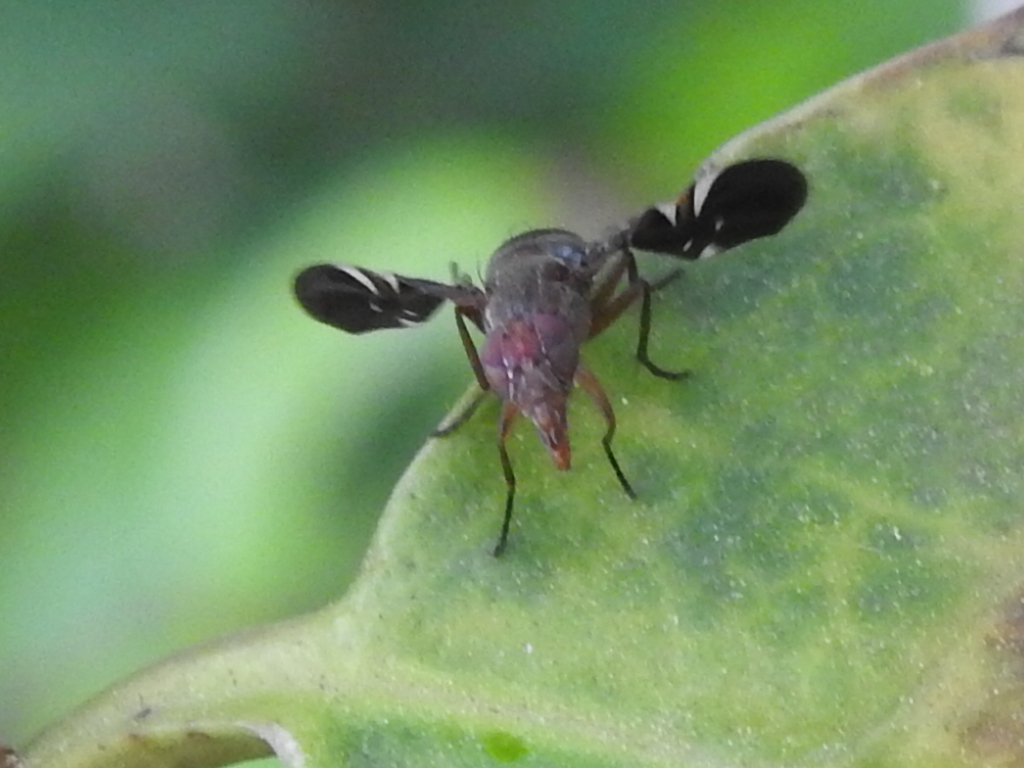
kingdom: Animalia
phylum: Arthropoda
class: Insecta
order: Diptera
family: Ulidiidae
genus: Delphinia
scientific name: Delphinia picta
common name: Common picture-winged fly
